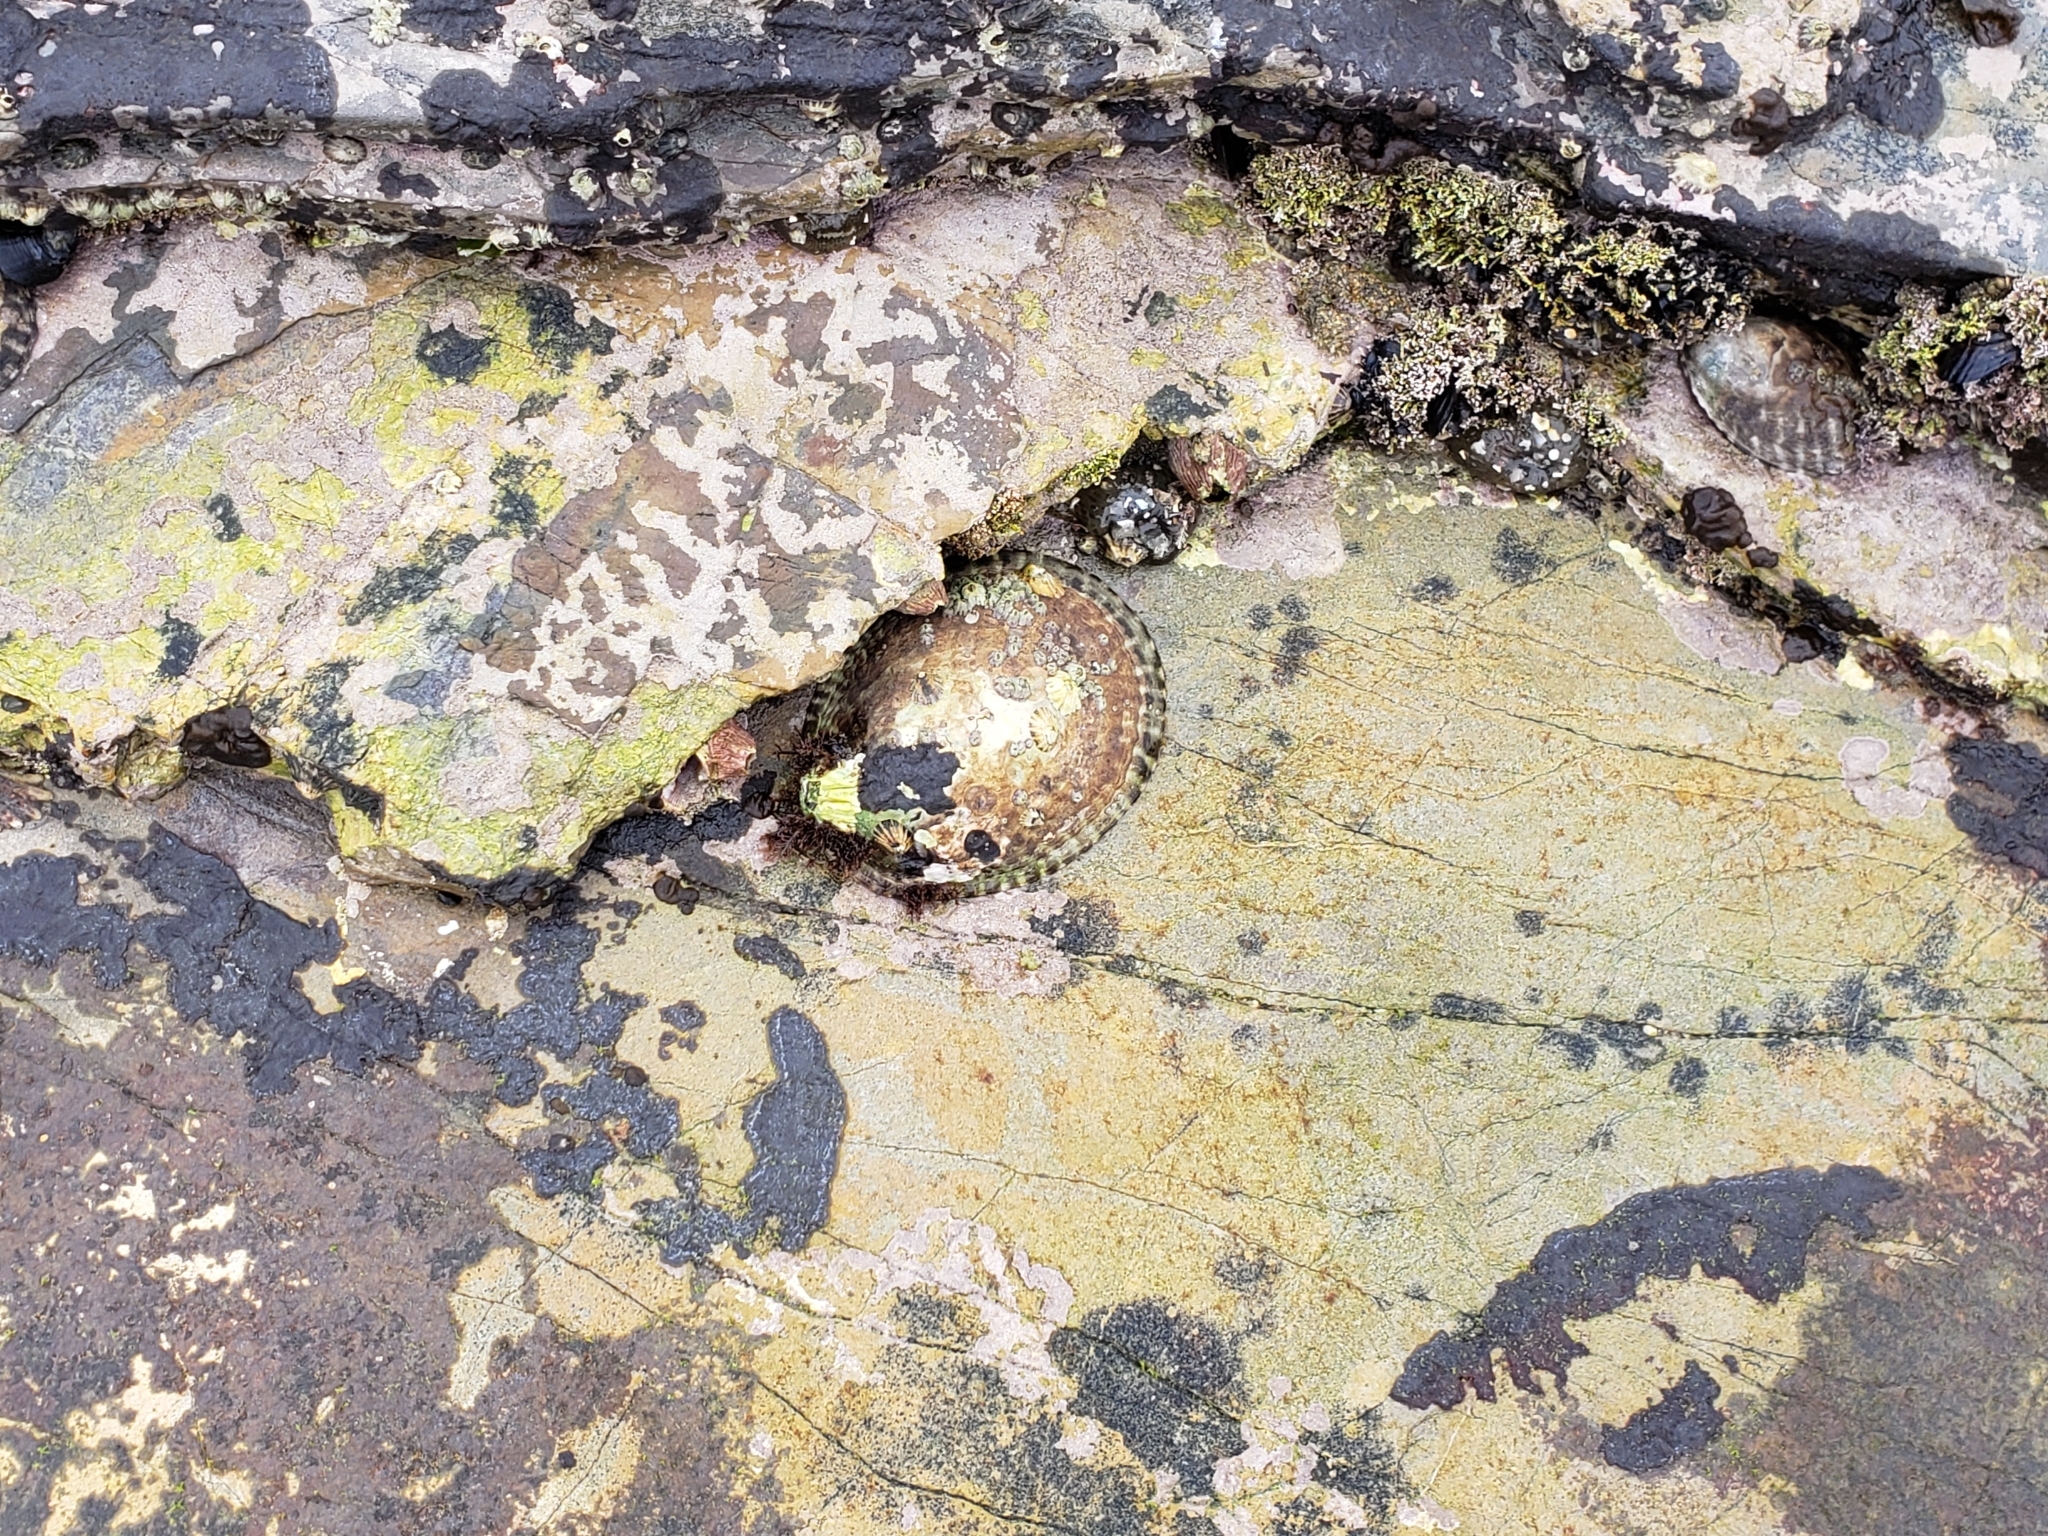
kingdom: Animalia
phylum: Mollusca
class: Gastropoda
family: Lottiidae
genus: Lottia
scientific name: Lottia gigantea
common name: Owl limpet
